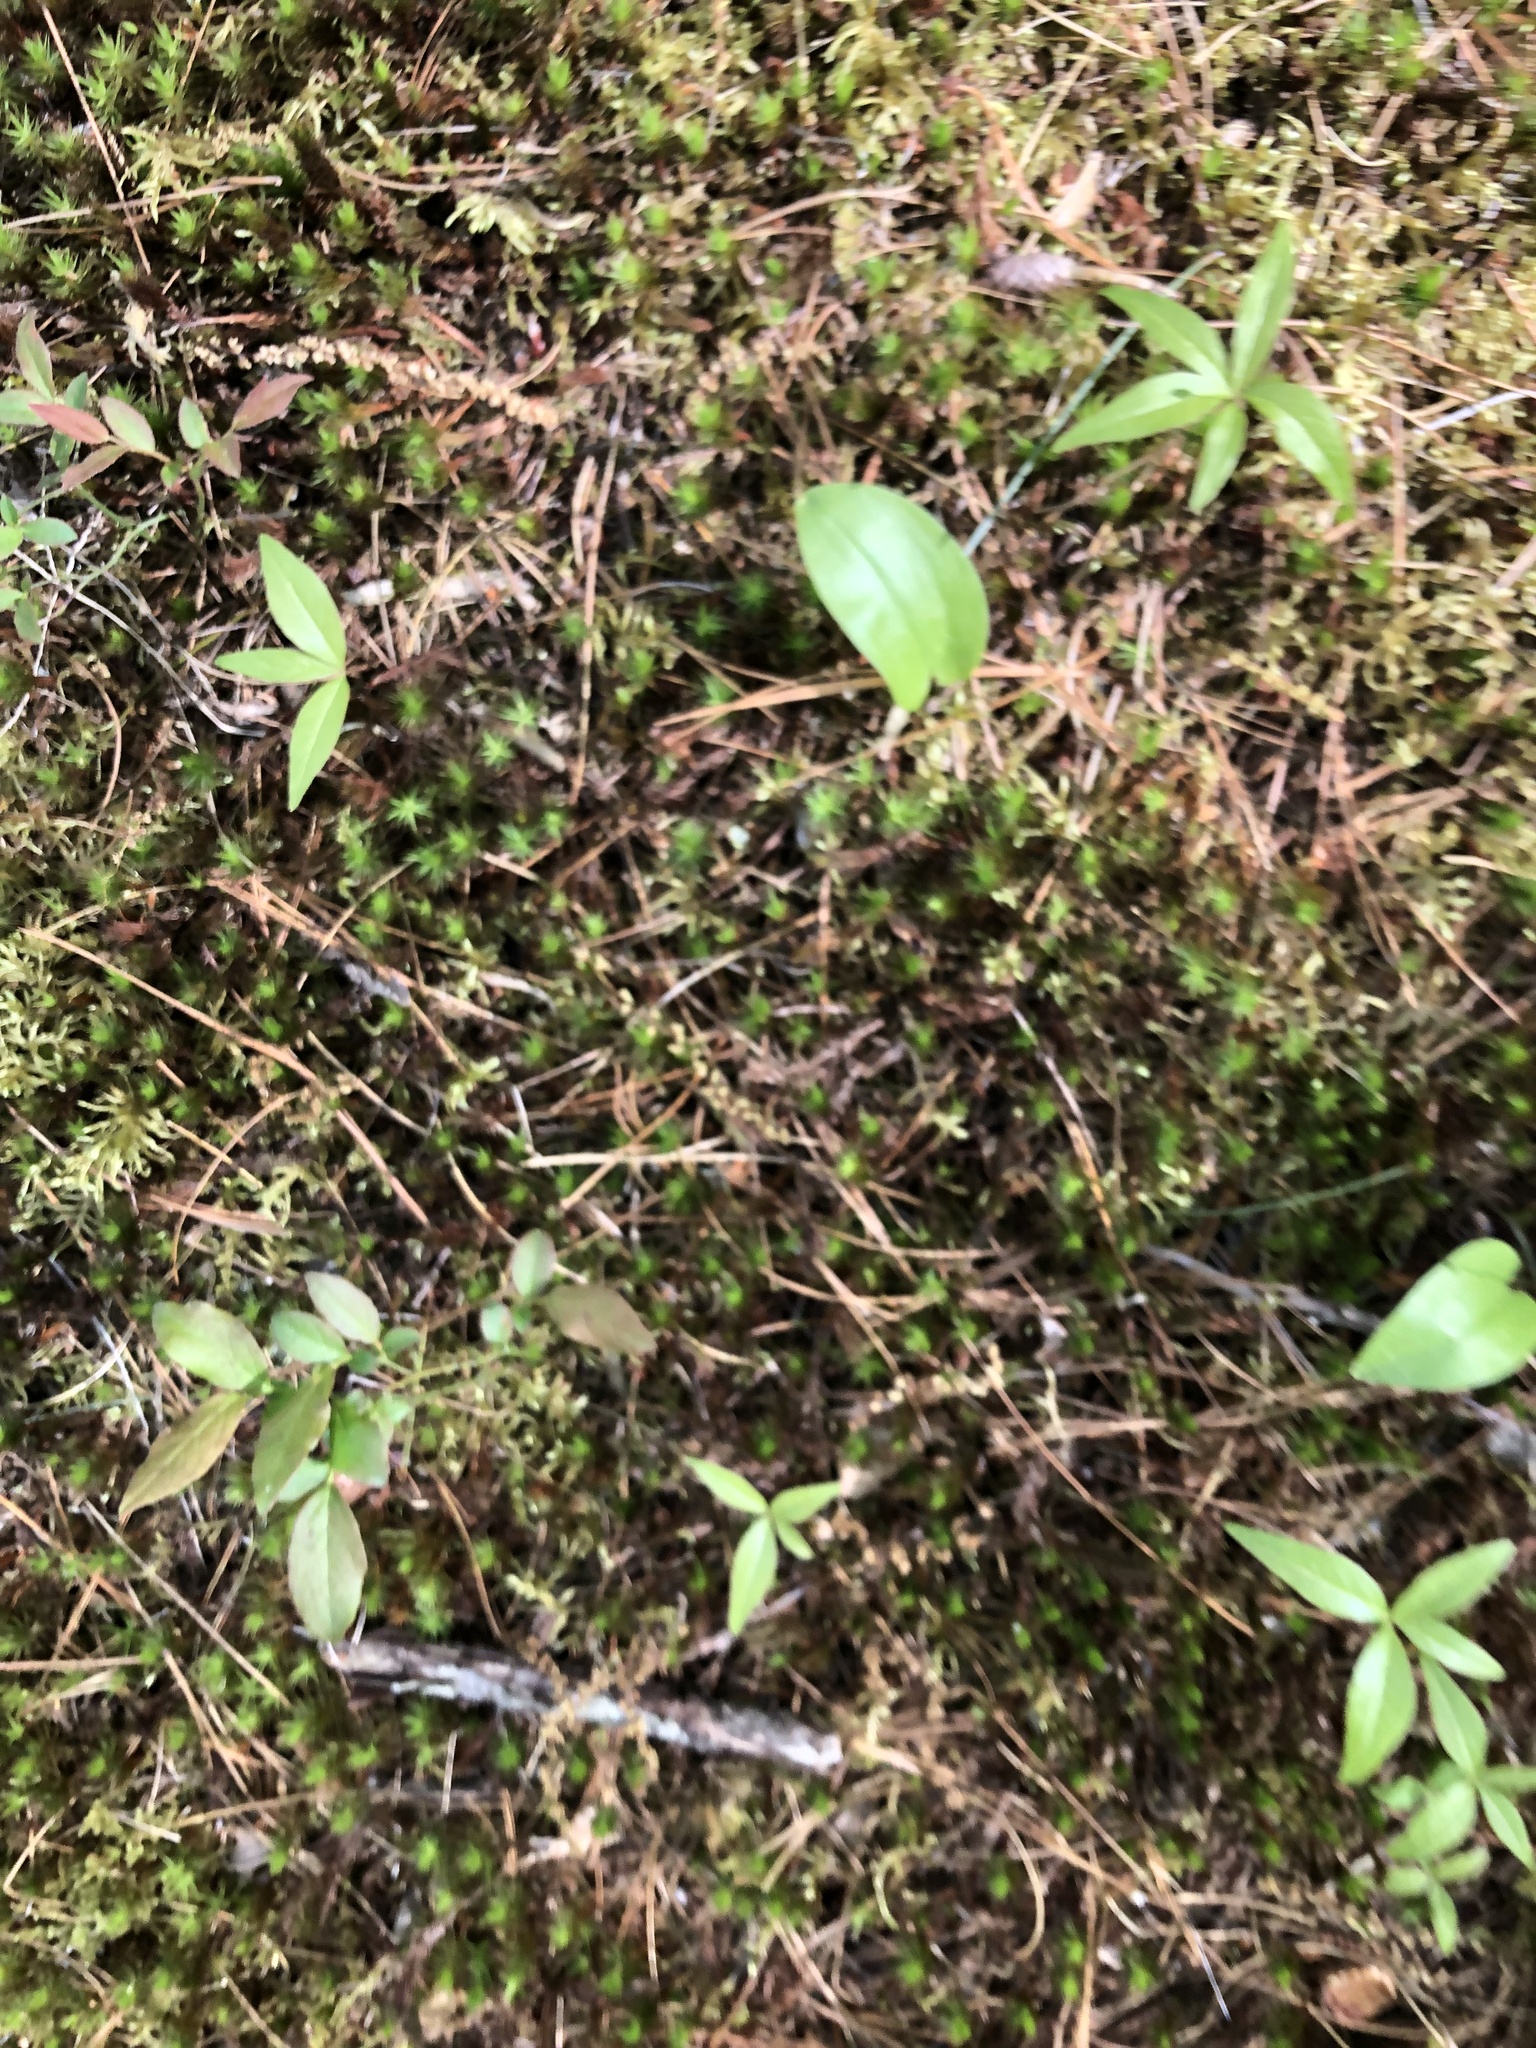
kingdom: Plantae
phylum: Tracheophyta
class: Magnoliopsida
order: Ericales
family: Primulaceae
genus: Lysimachia
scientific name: Lysimachia borealis
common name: American starflower
